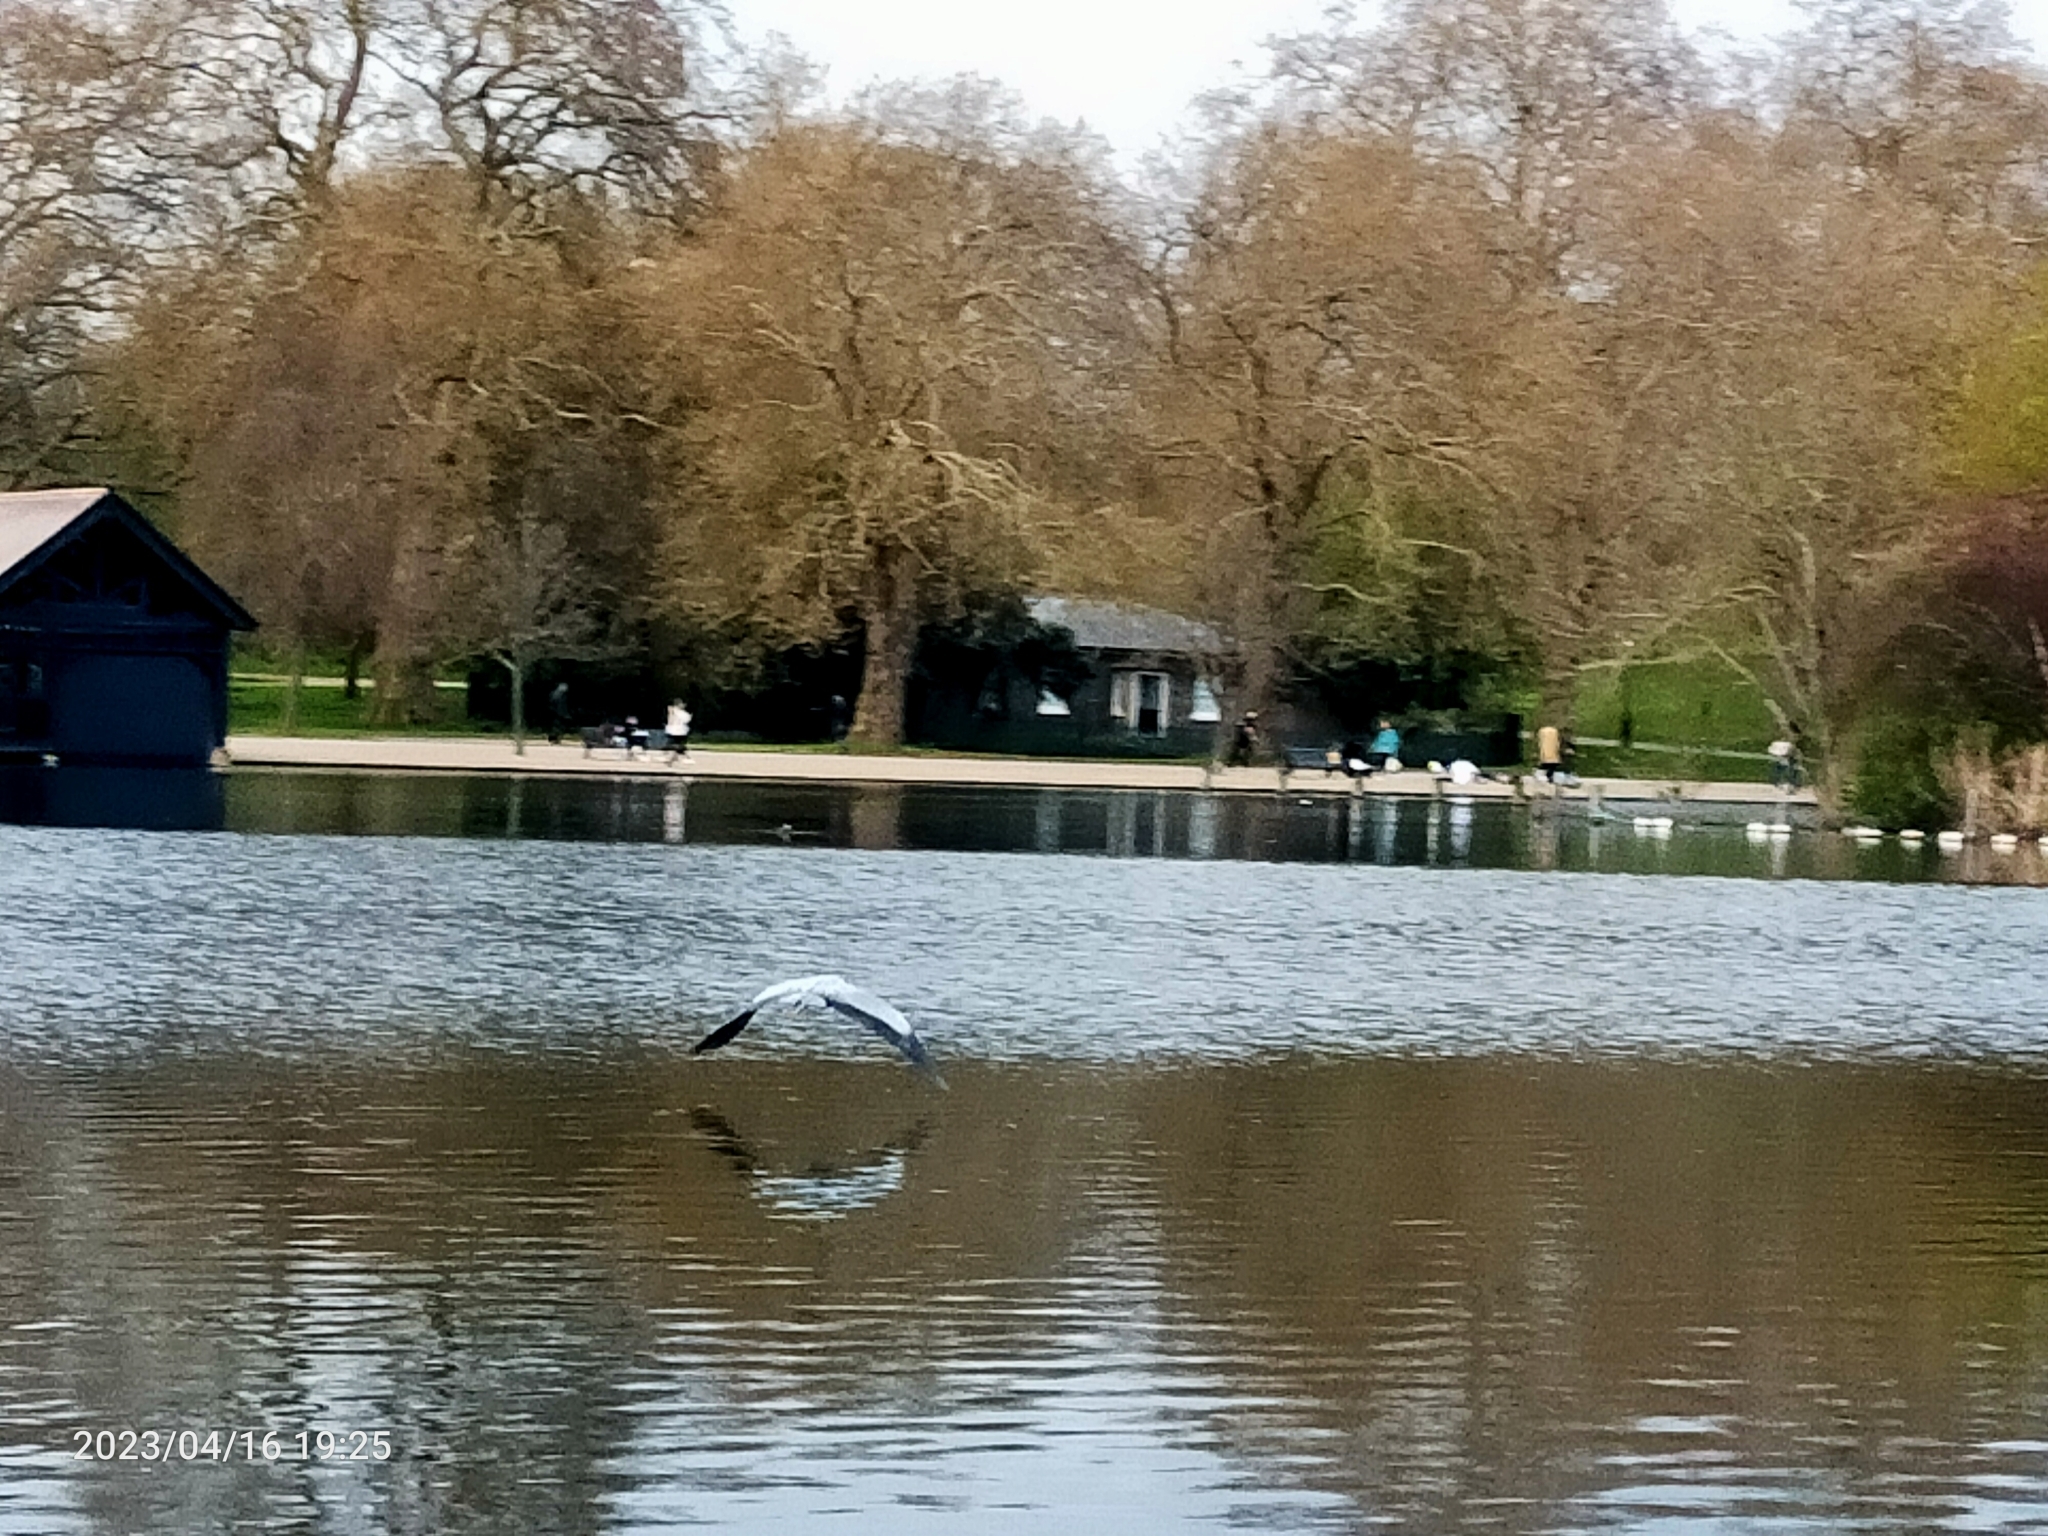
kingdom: Animalia
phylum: Chordata
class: Aves
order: Pelecaniformes
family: Ardeidae
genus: Ardea
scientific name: Ardea cinerea
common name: Grey heron
